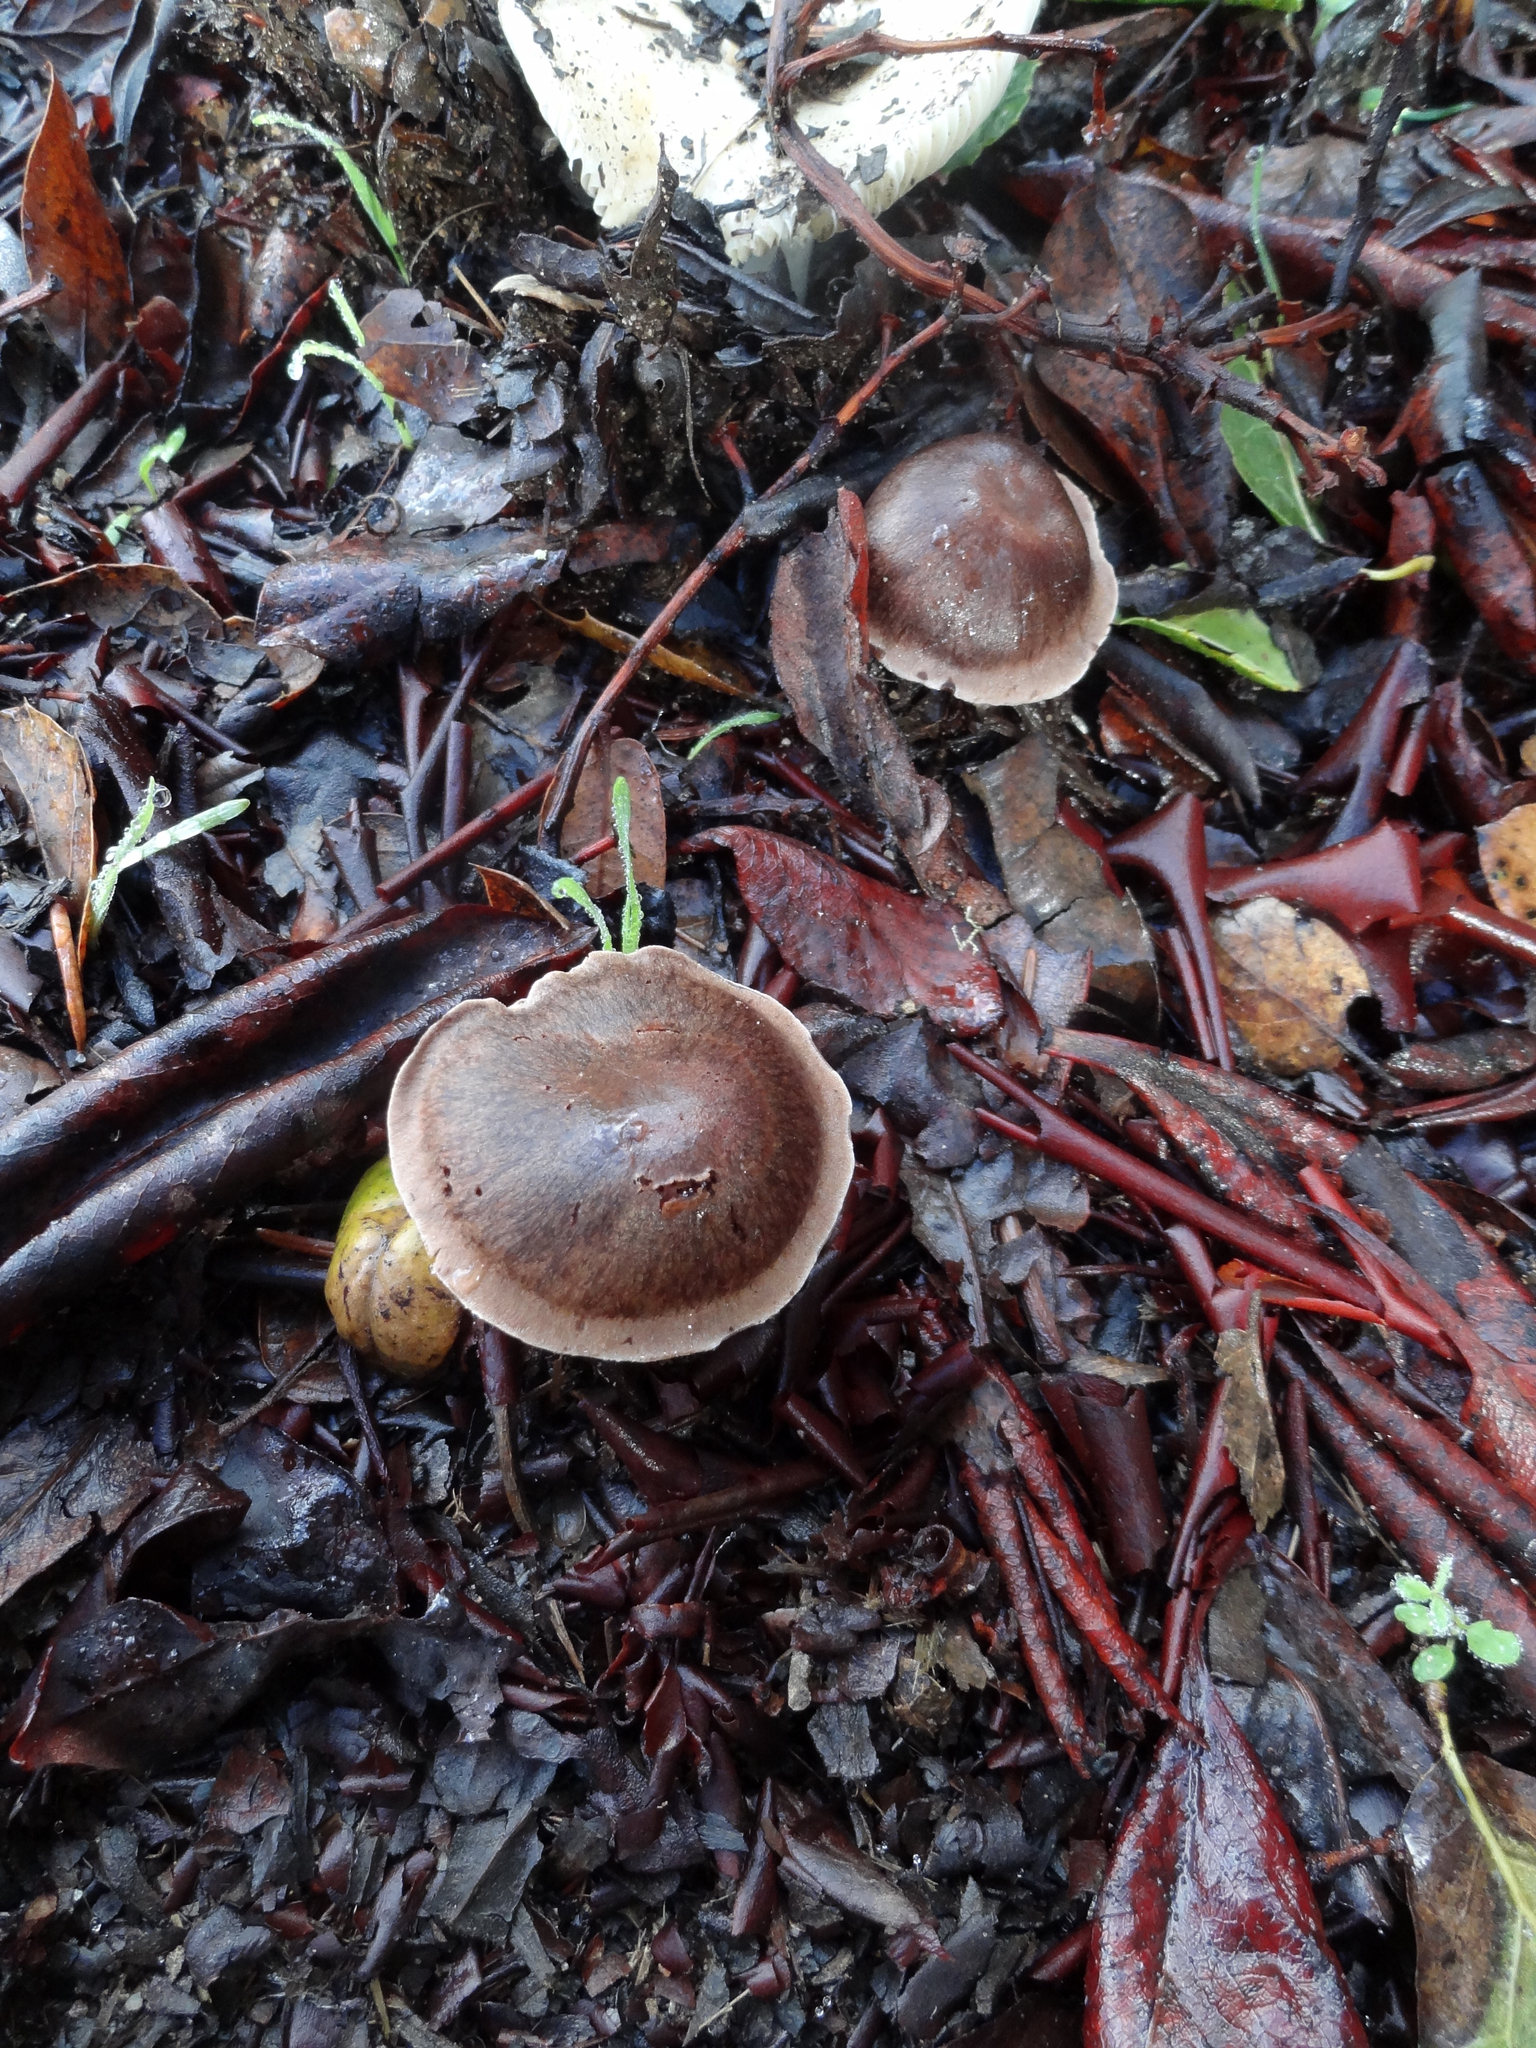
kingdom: Fungi
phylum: Basidiomycota
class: Agaricomycetes
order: Agaricales
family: Cortinariaceae
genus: Cortinarius
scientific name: Cortinarius ohlone
